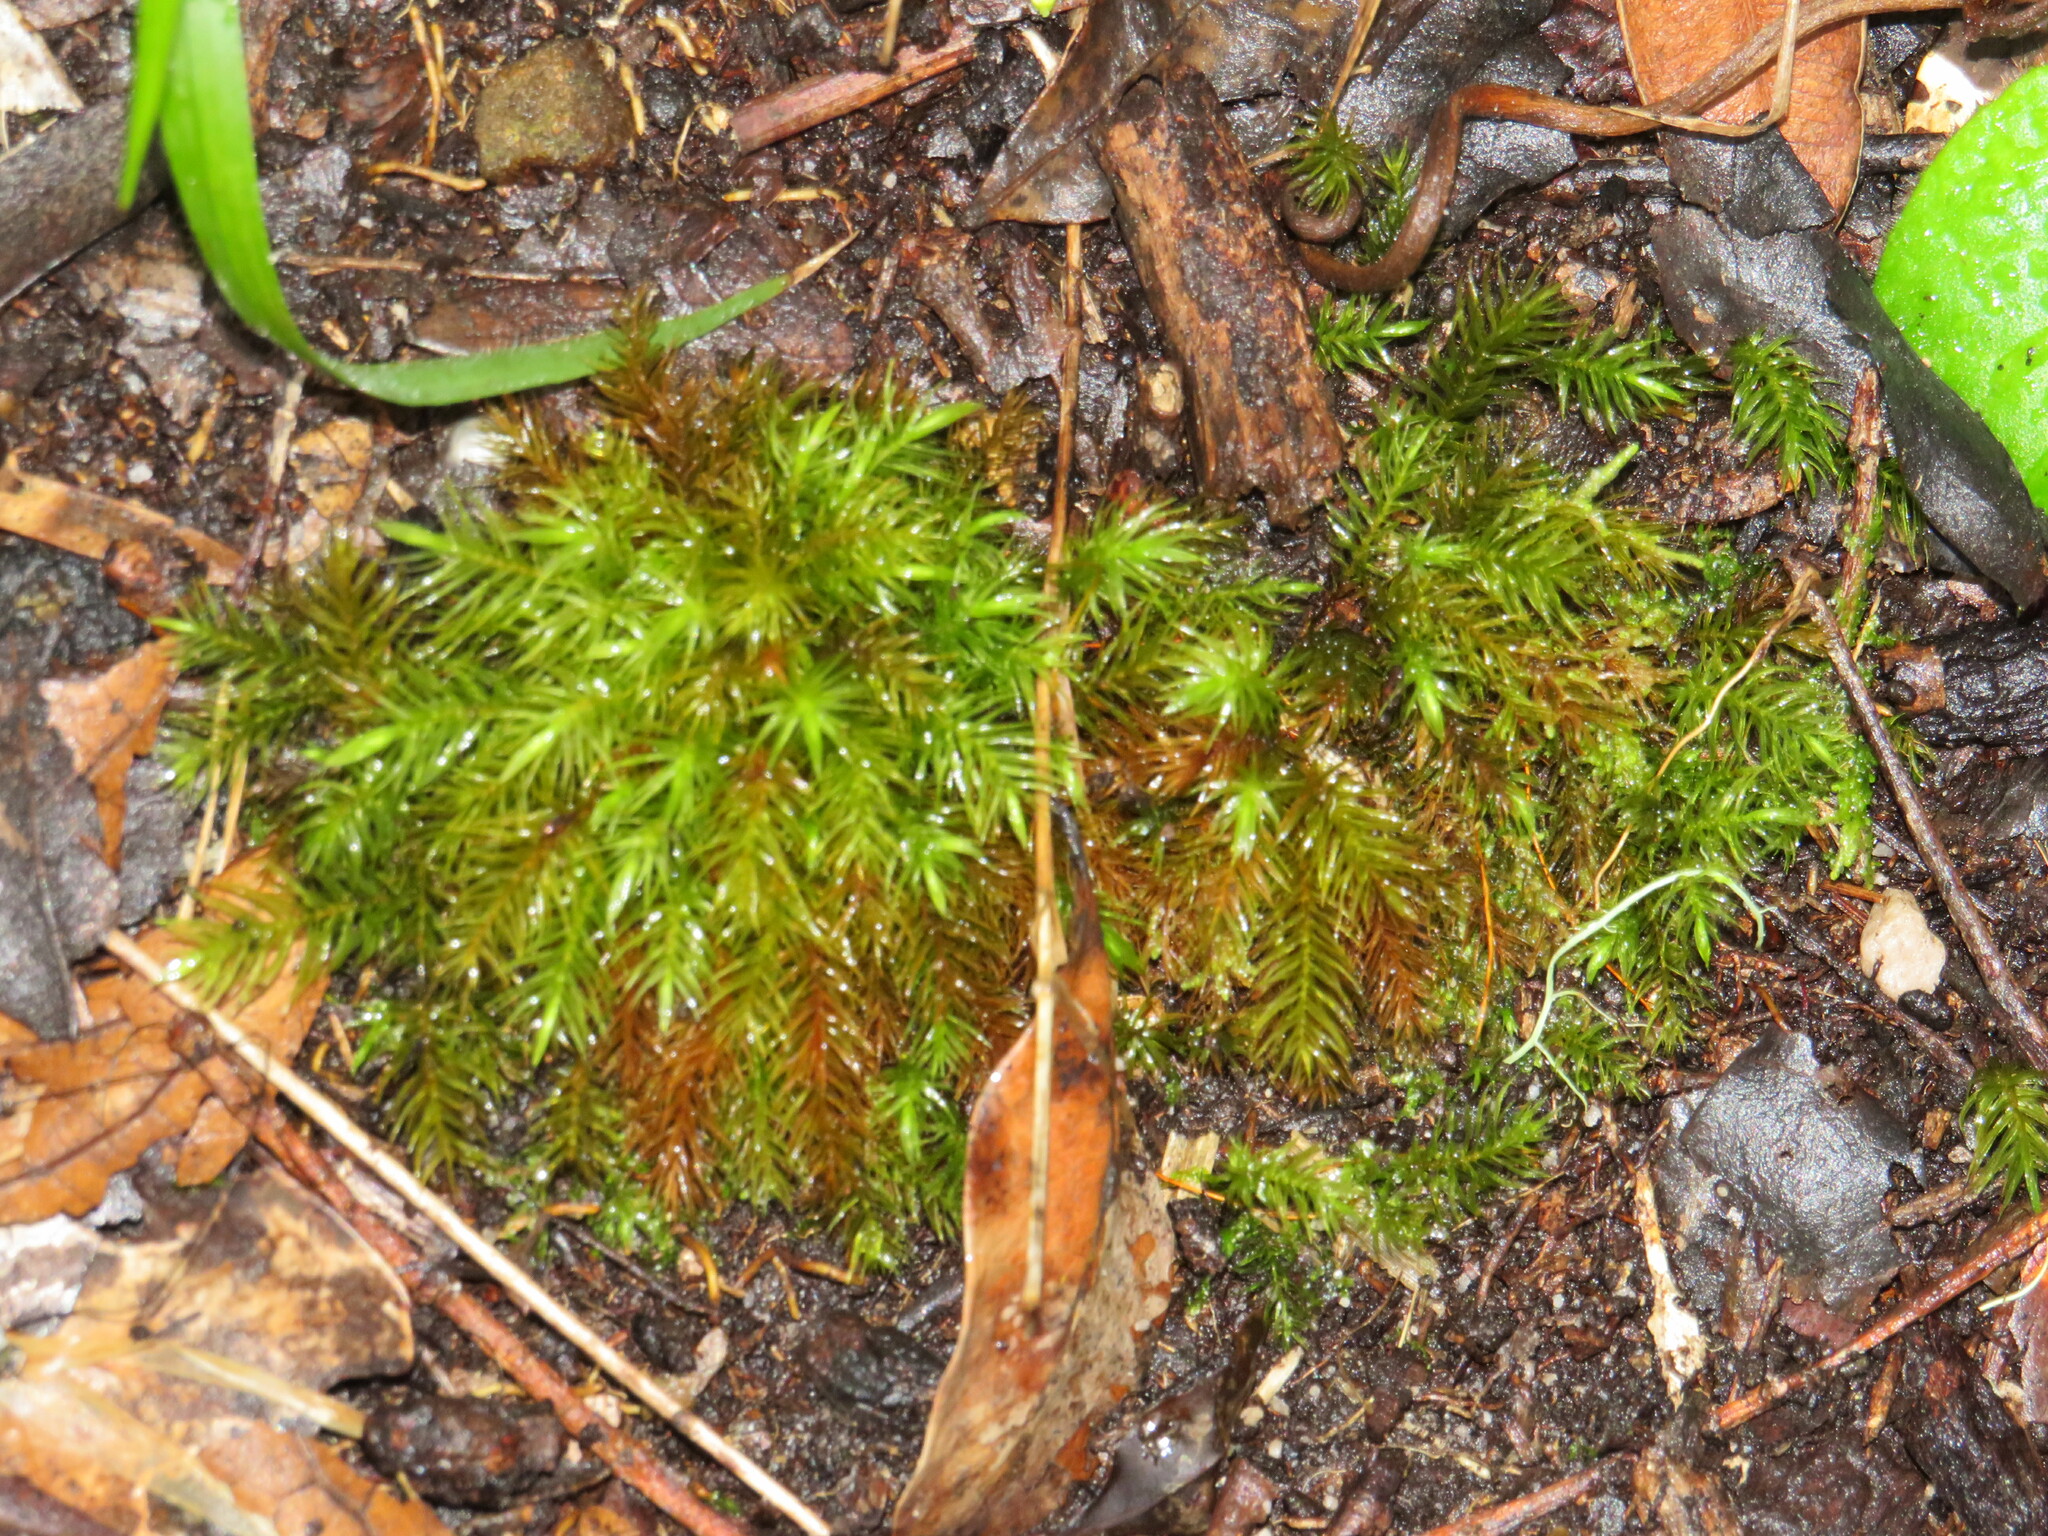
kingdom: Plantae
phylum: Bryophyta
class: Bryopsida
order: Rhizogoniales
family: Calomniaceae
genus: Pyrrhobryum
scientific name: Pyrrhobryum spiniforme
